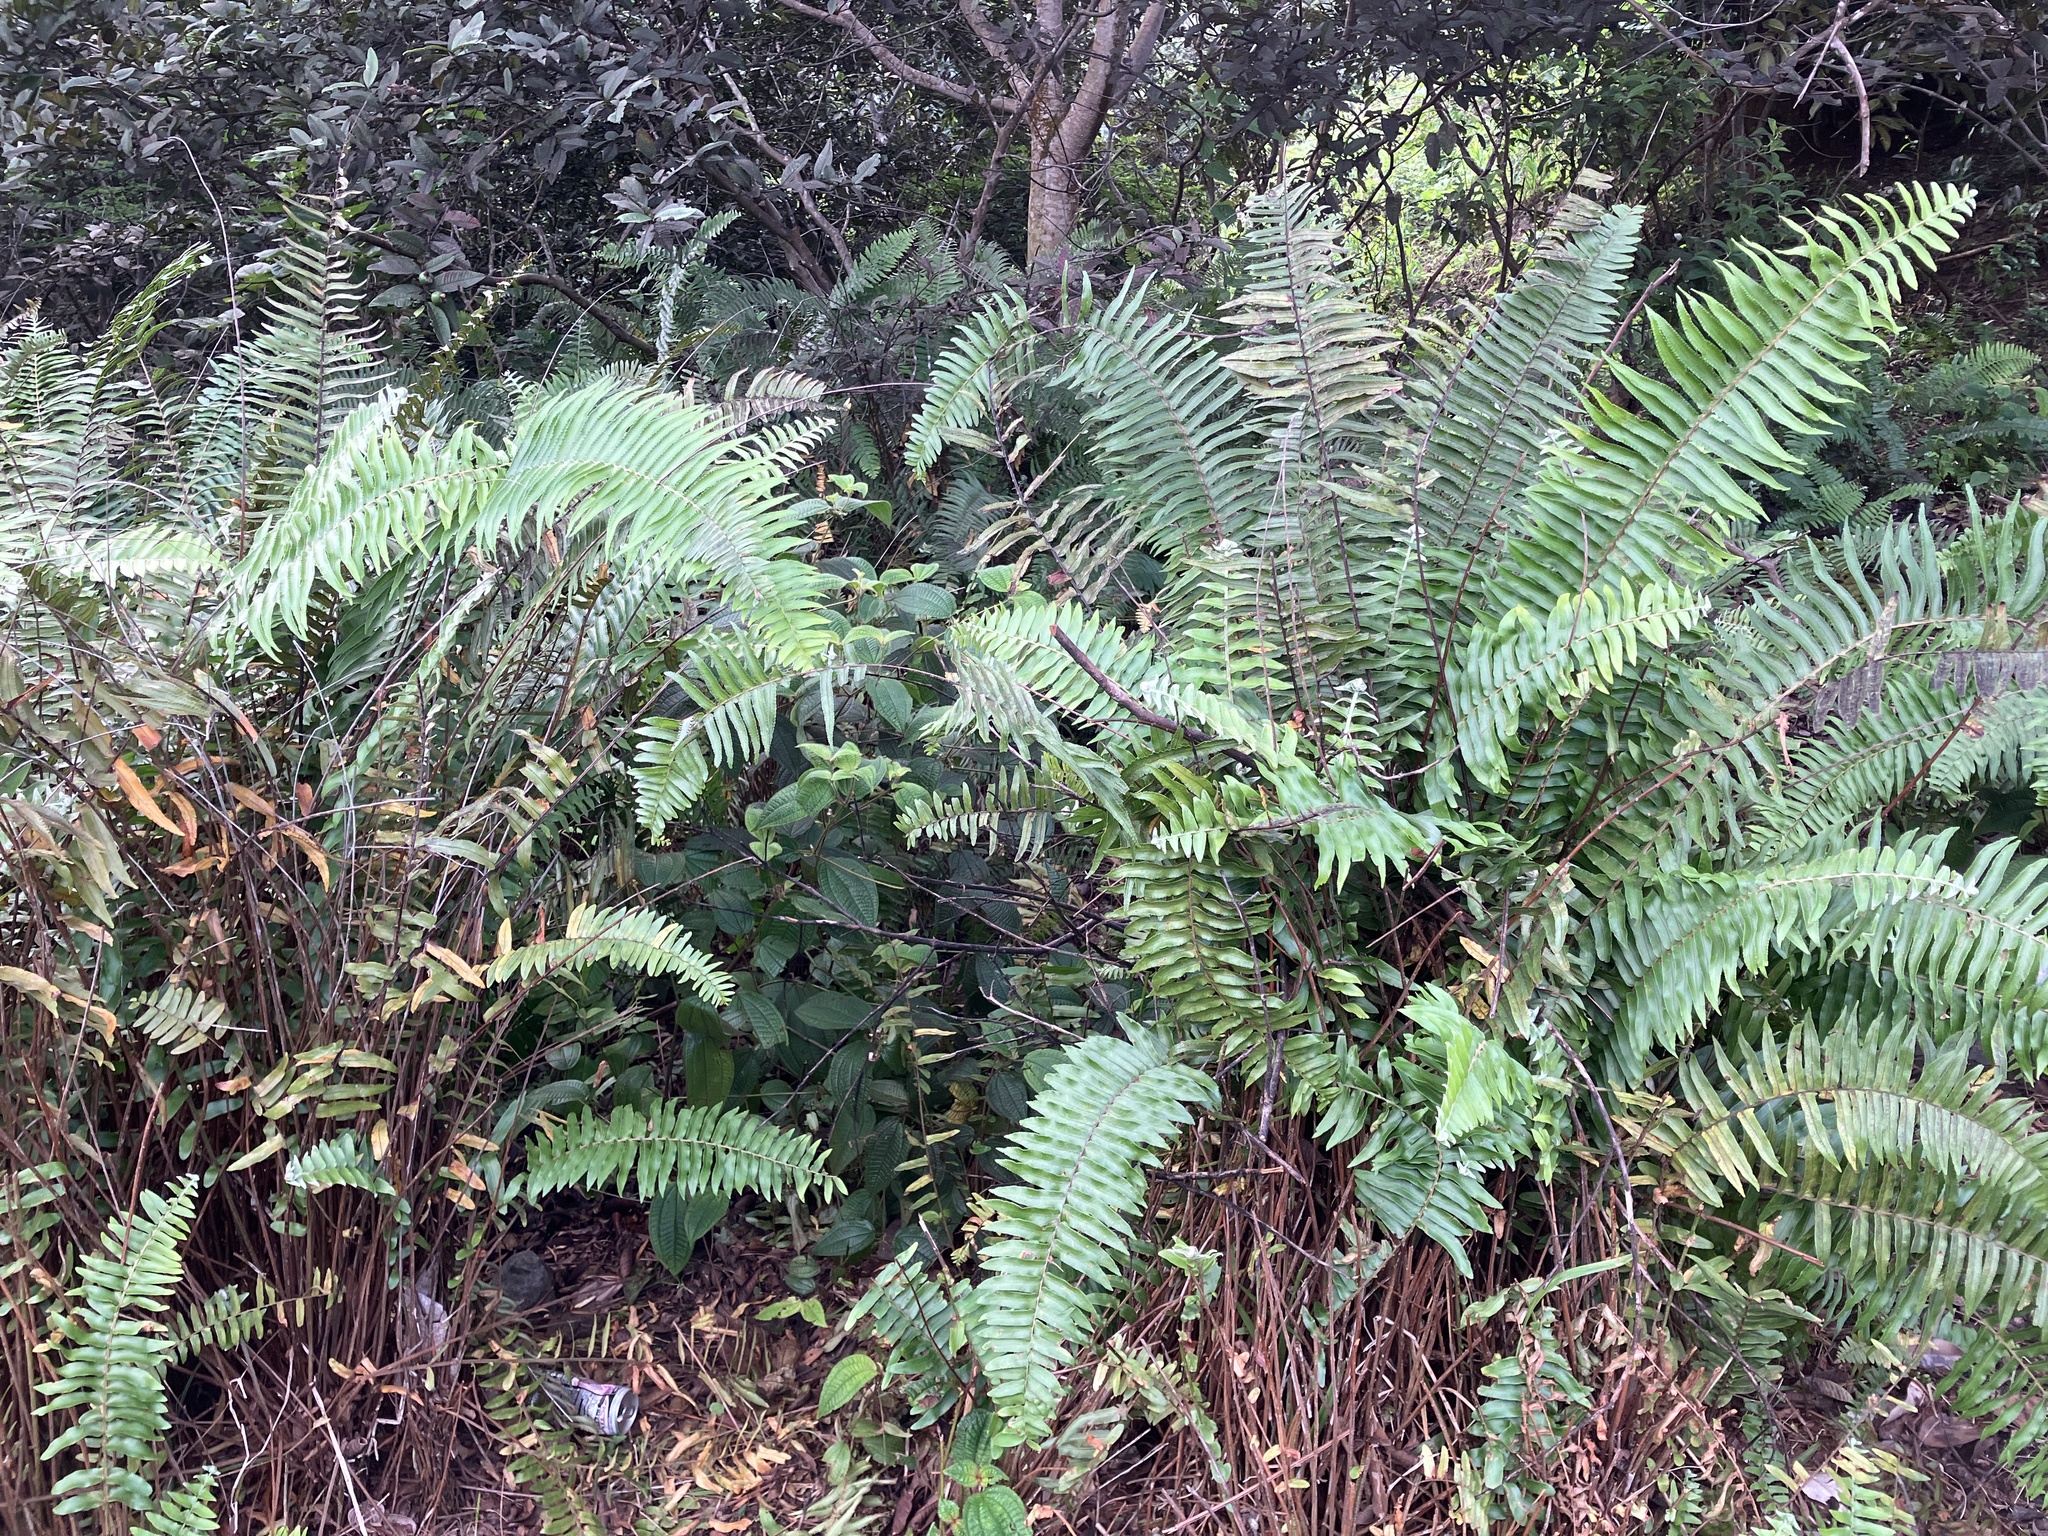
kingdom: Plantae
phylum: Tracheophyta
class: Polypodiopsida
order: Polypodiales
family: Nephrolepidaceae
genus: Nephrolepis
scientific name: Nephrolepis brownii
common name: Asian swordfern
